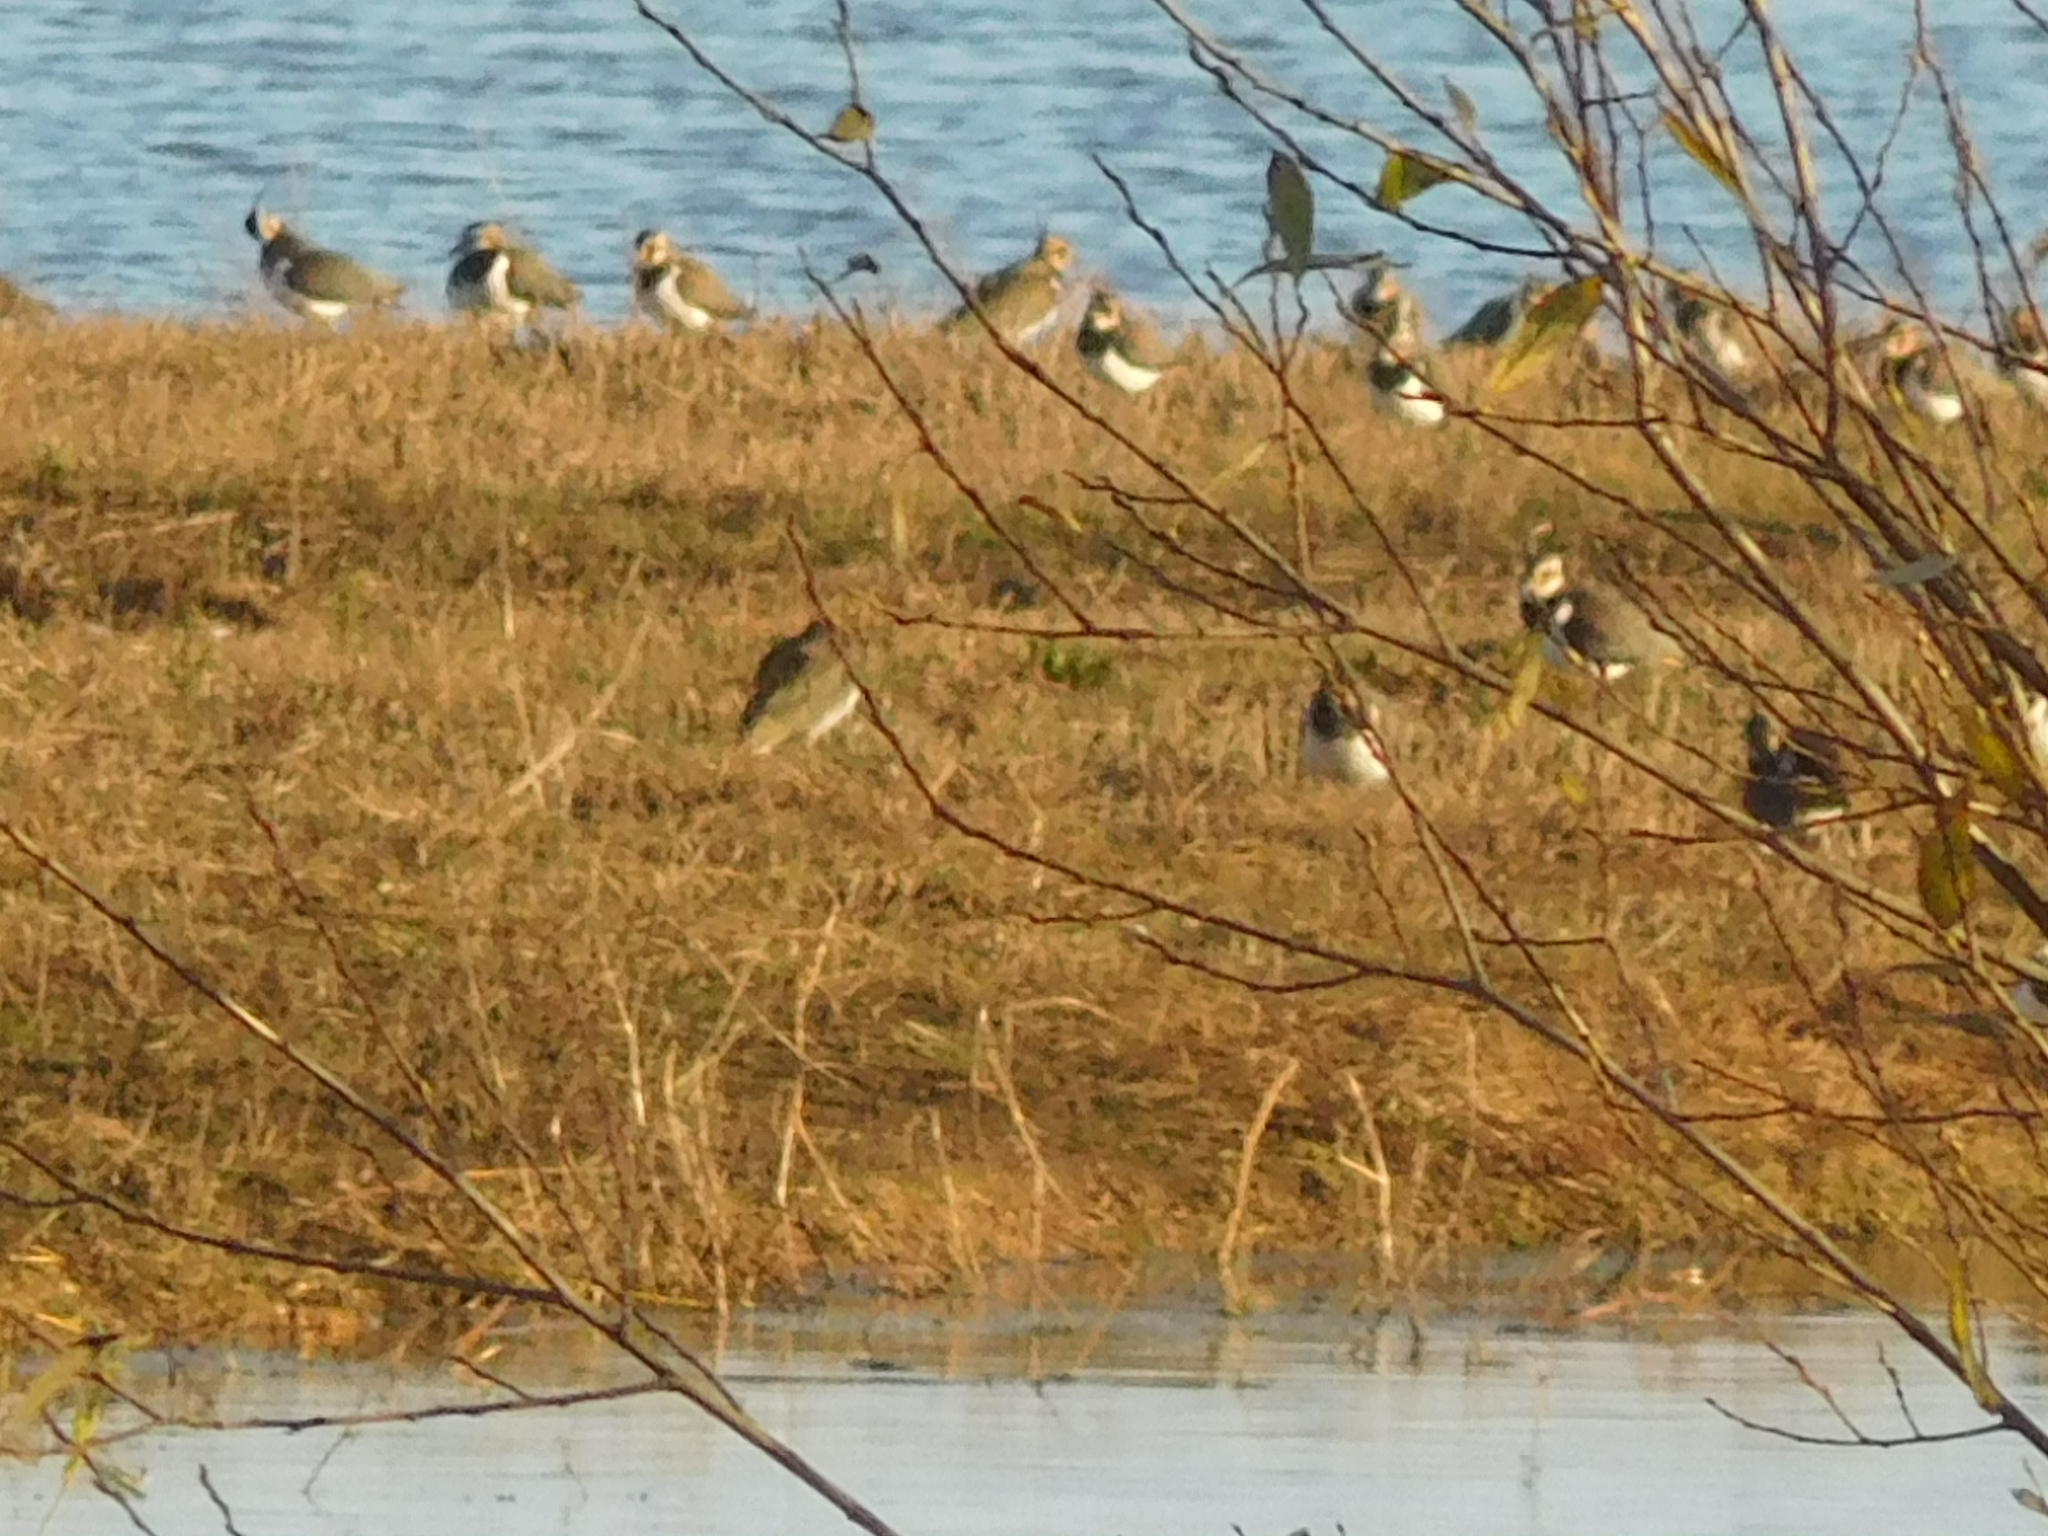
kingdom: Animalia
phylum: Chordata
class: Aves
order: Charadriiformes
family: Charadriidae
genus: Vanellus
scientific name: Vanellus vanellus
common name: Northern lapwing
